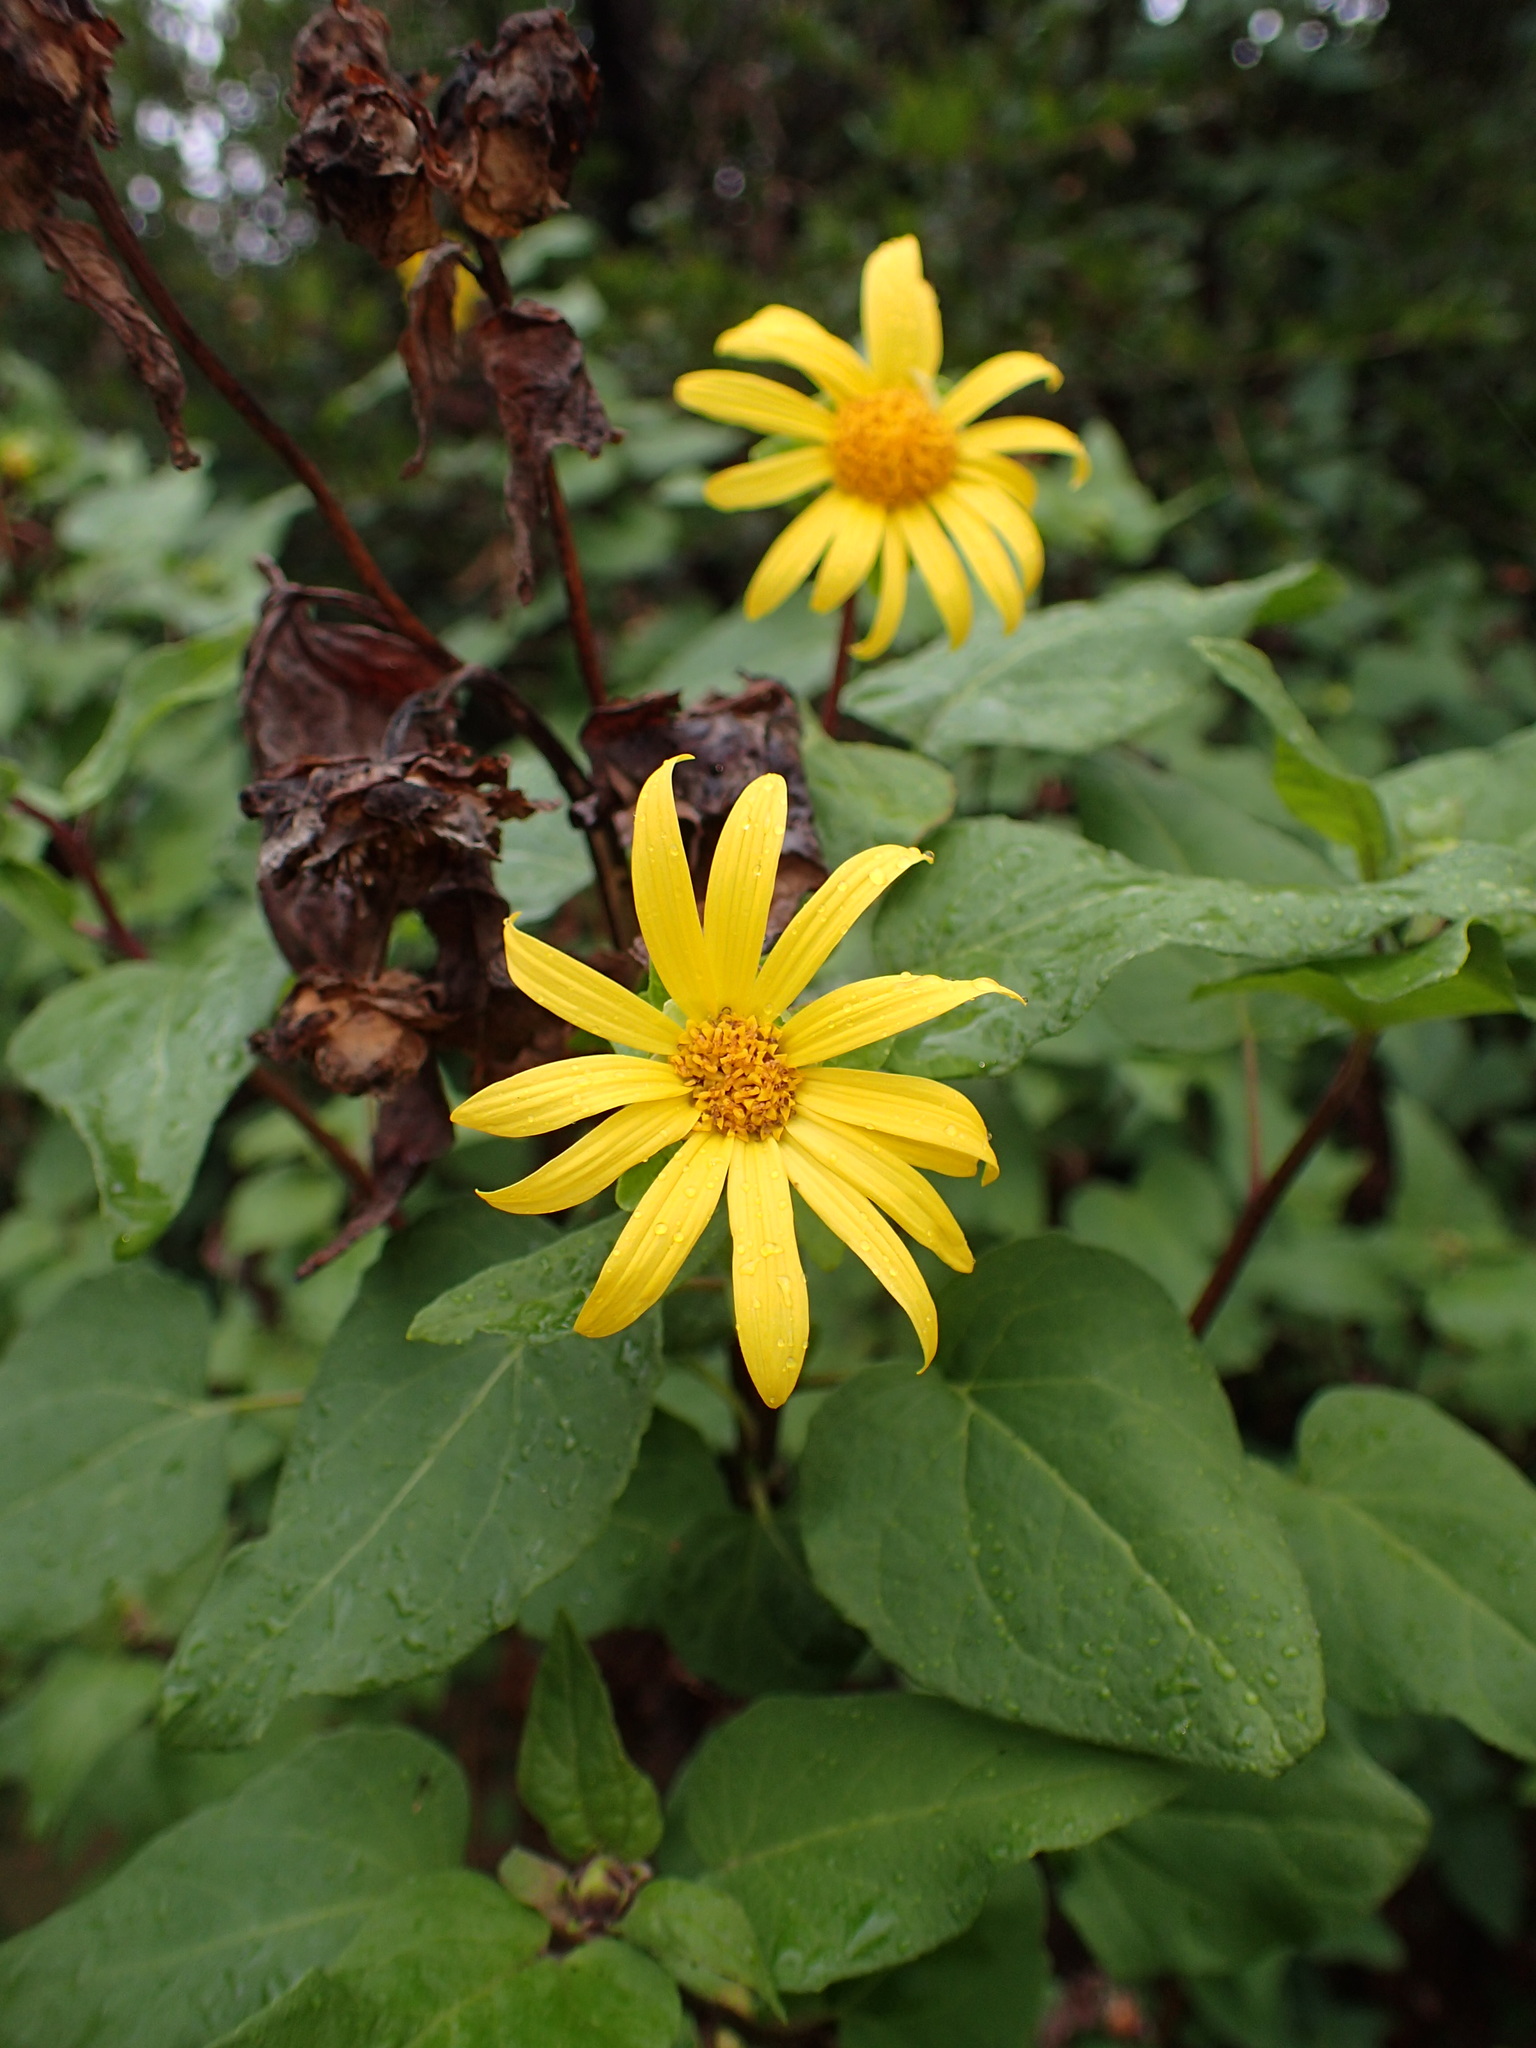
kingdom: Plantae
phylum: Tracheophyta
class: Magnoliopsida
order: Asterales
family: Asteraceae
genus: Venegasia
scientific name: Venegasia carpesioides
